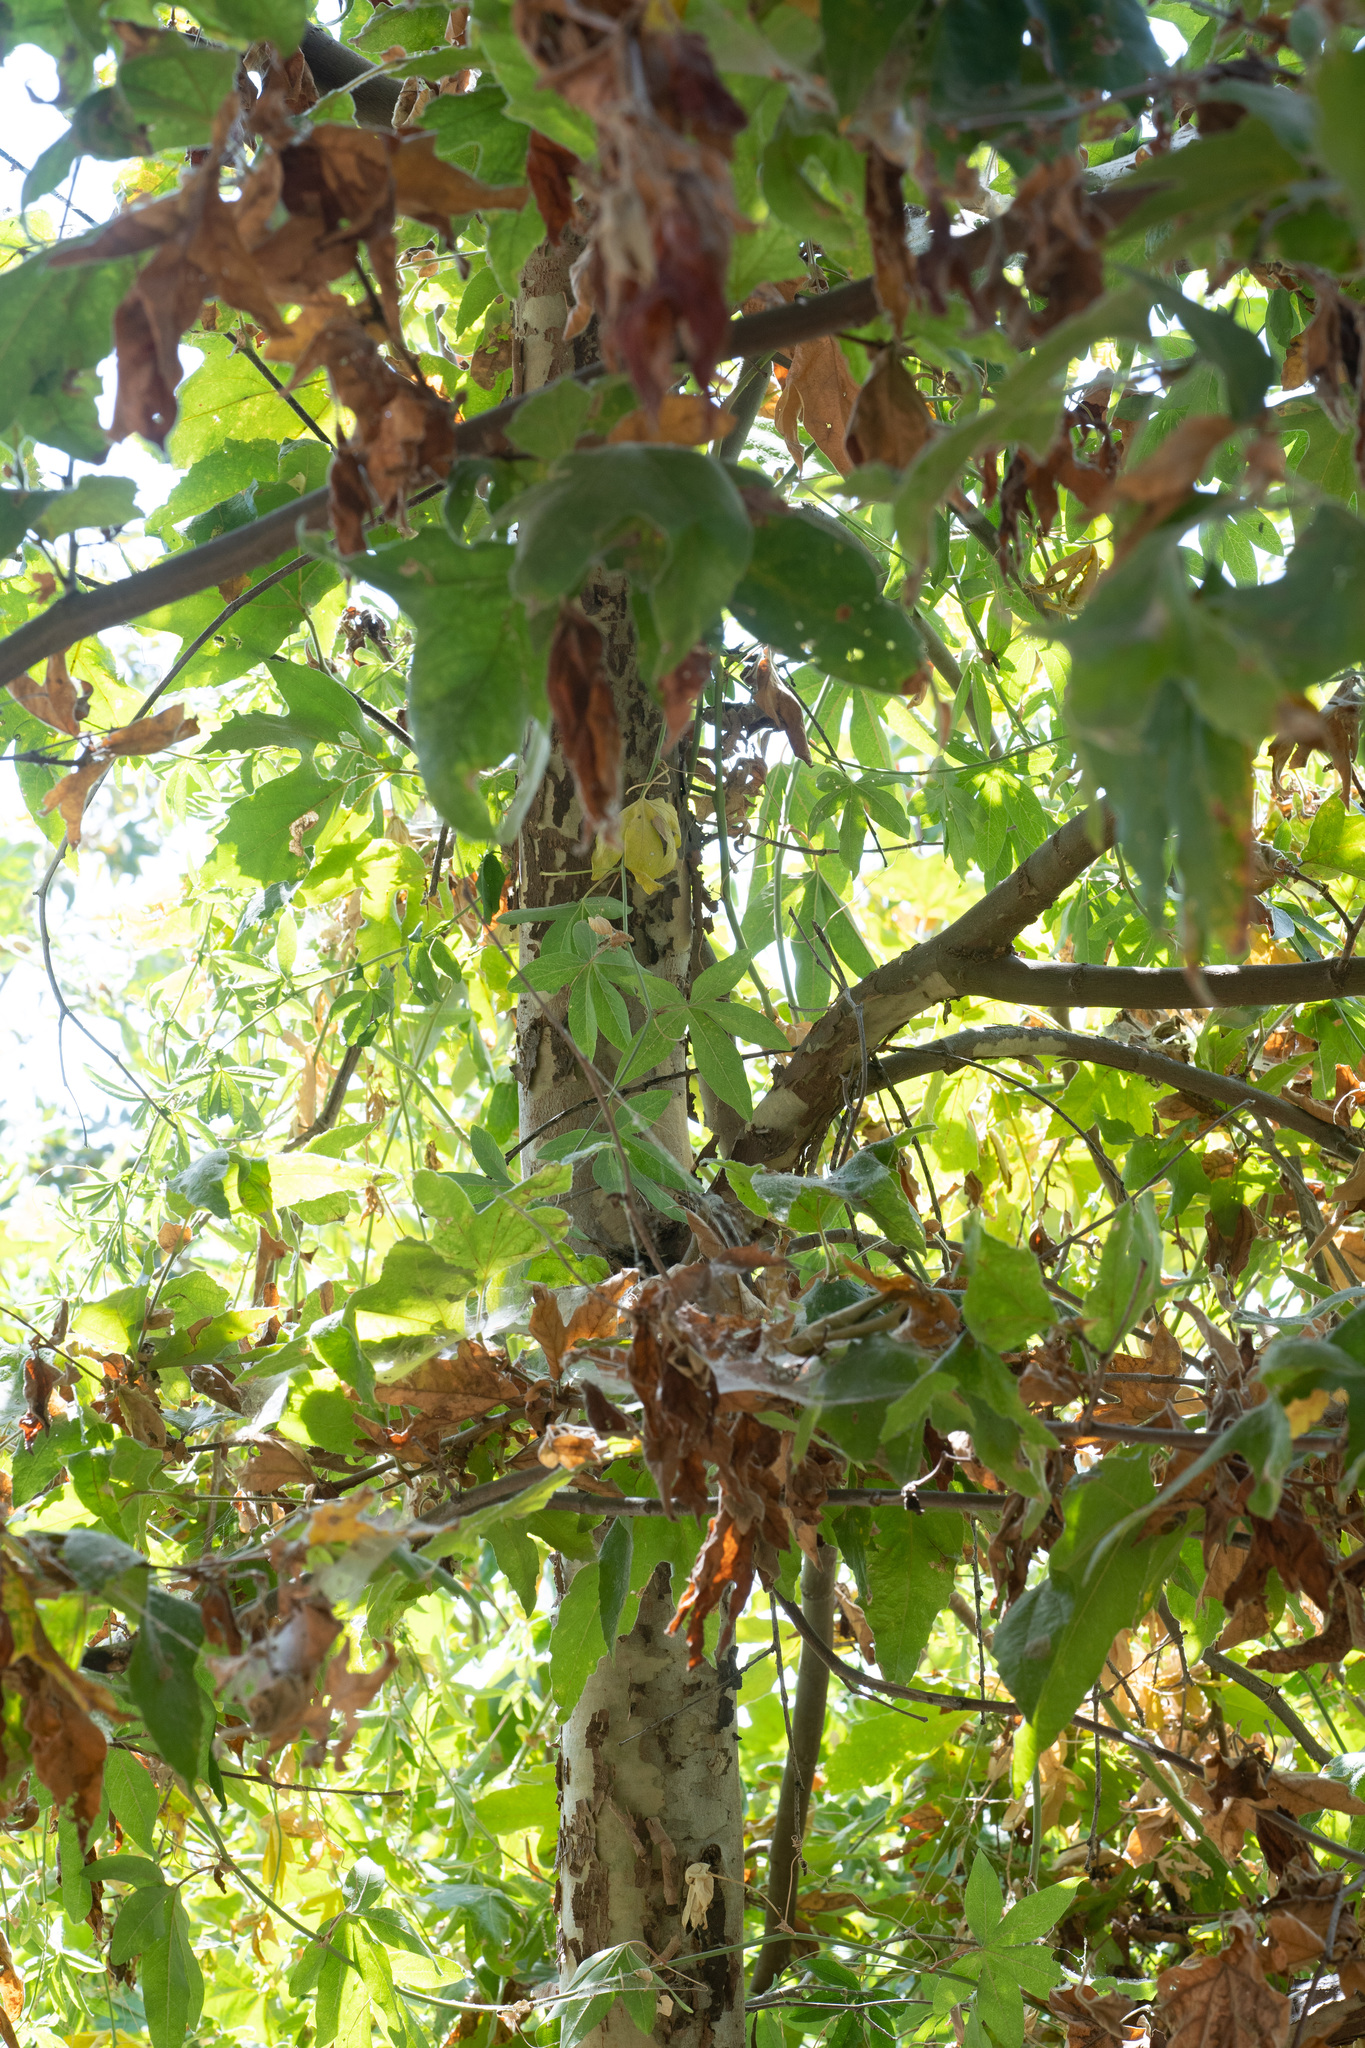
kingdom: Plantae
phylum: Tracheophyta
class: Magnoliopsida
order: Proteales
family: Platanaceae
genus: Platanus
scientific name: Platanus racemosa
